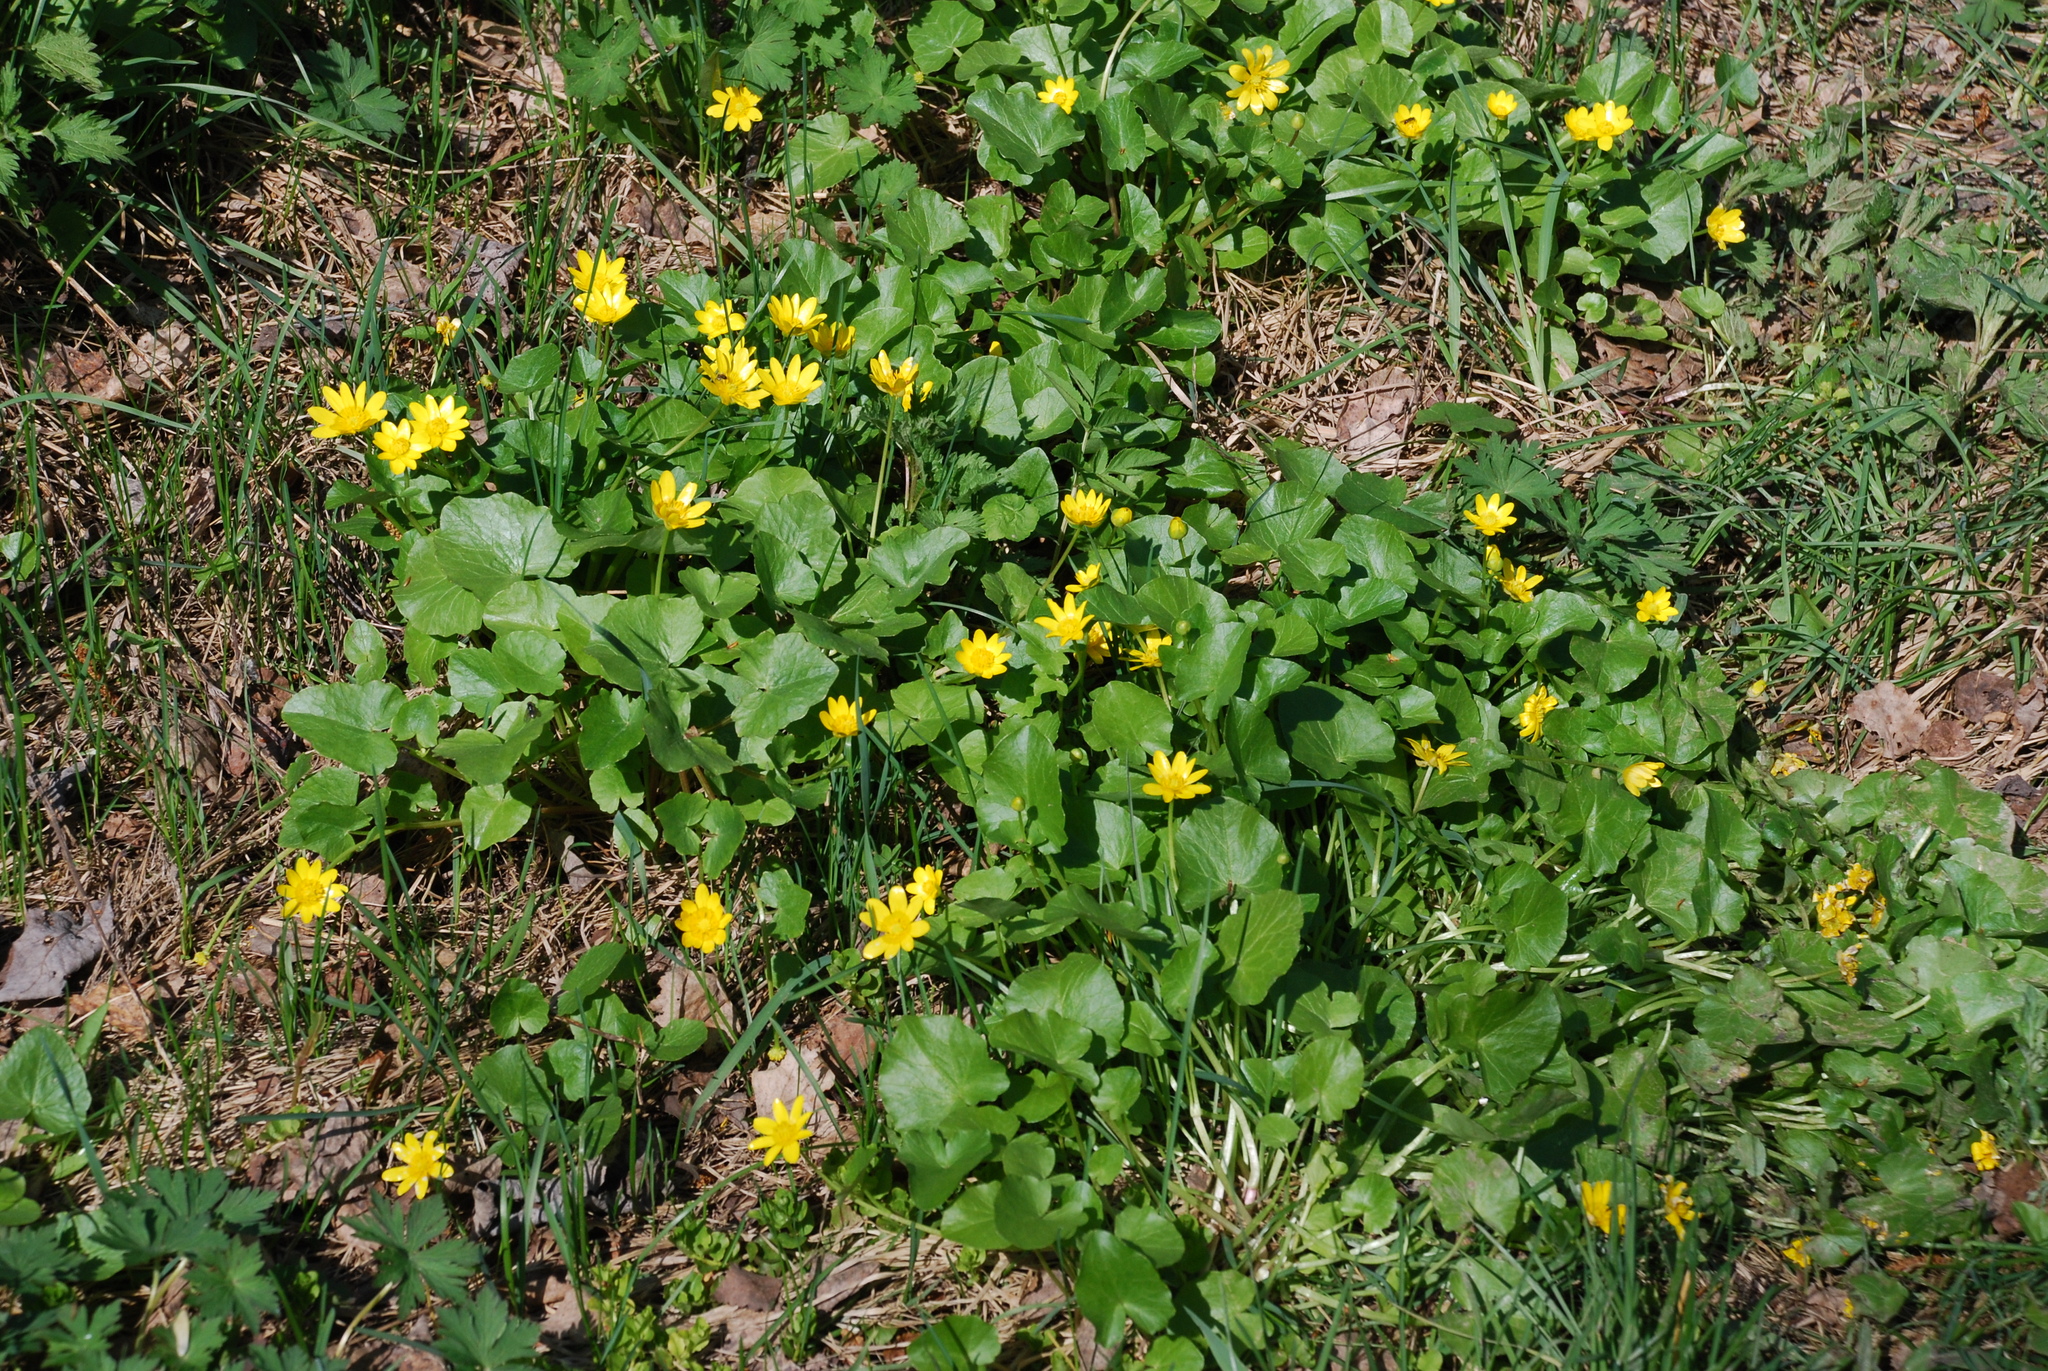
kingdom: Plantae
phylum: Tracheophyta
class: Magnoliopsida
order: Ranunculales
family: Ranunculaceae
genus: Ficaria
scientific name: Ficaria verna
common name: Lesser celandine
